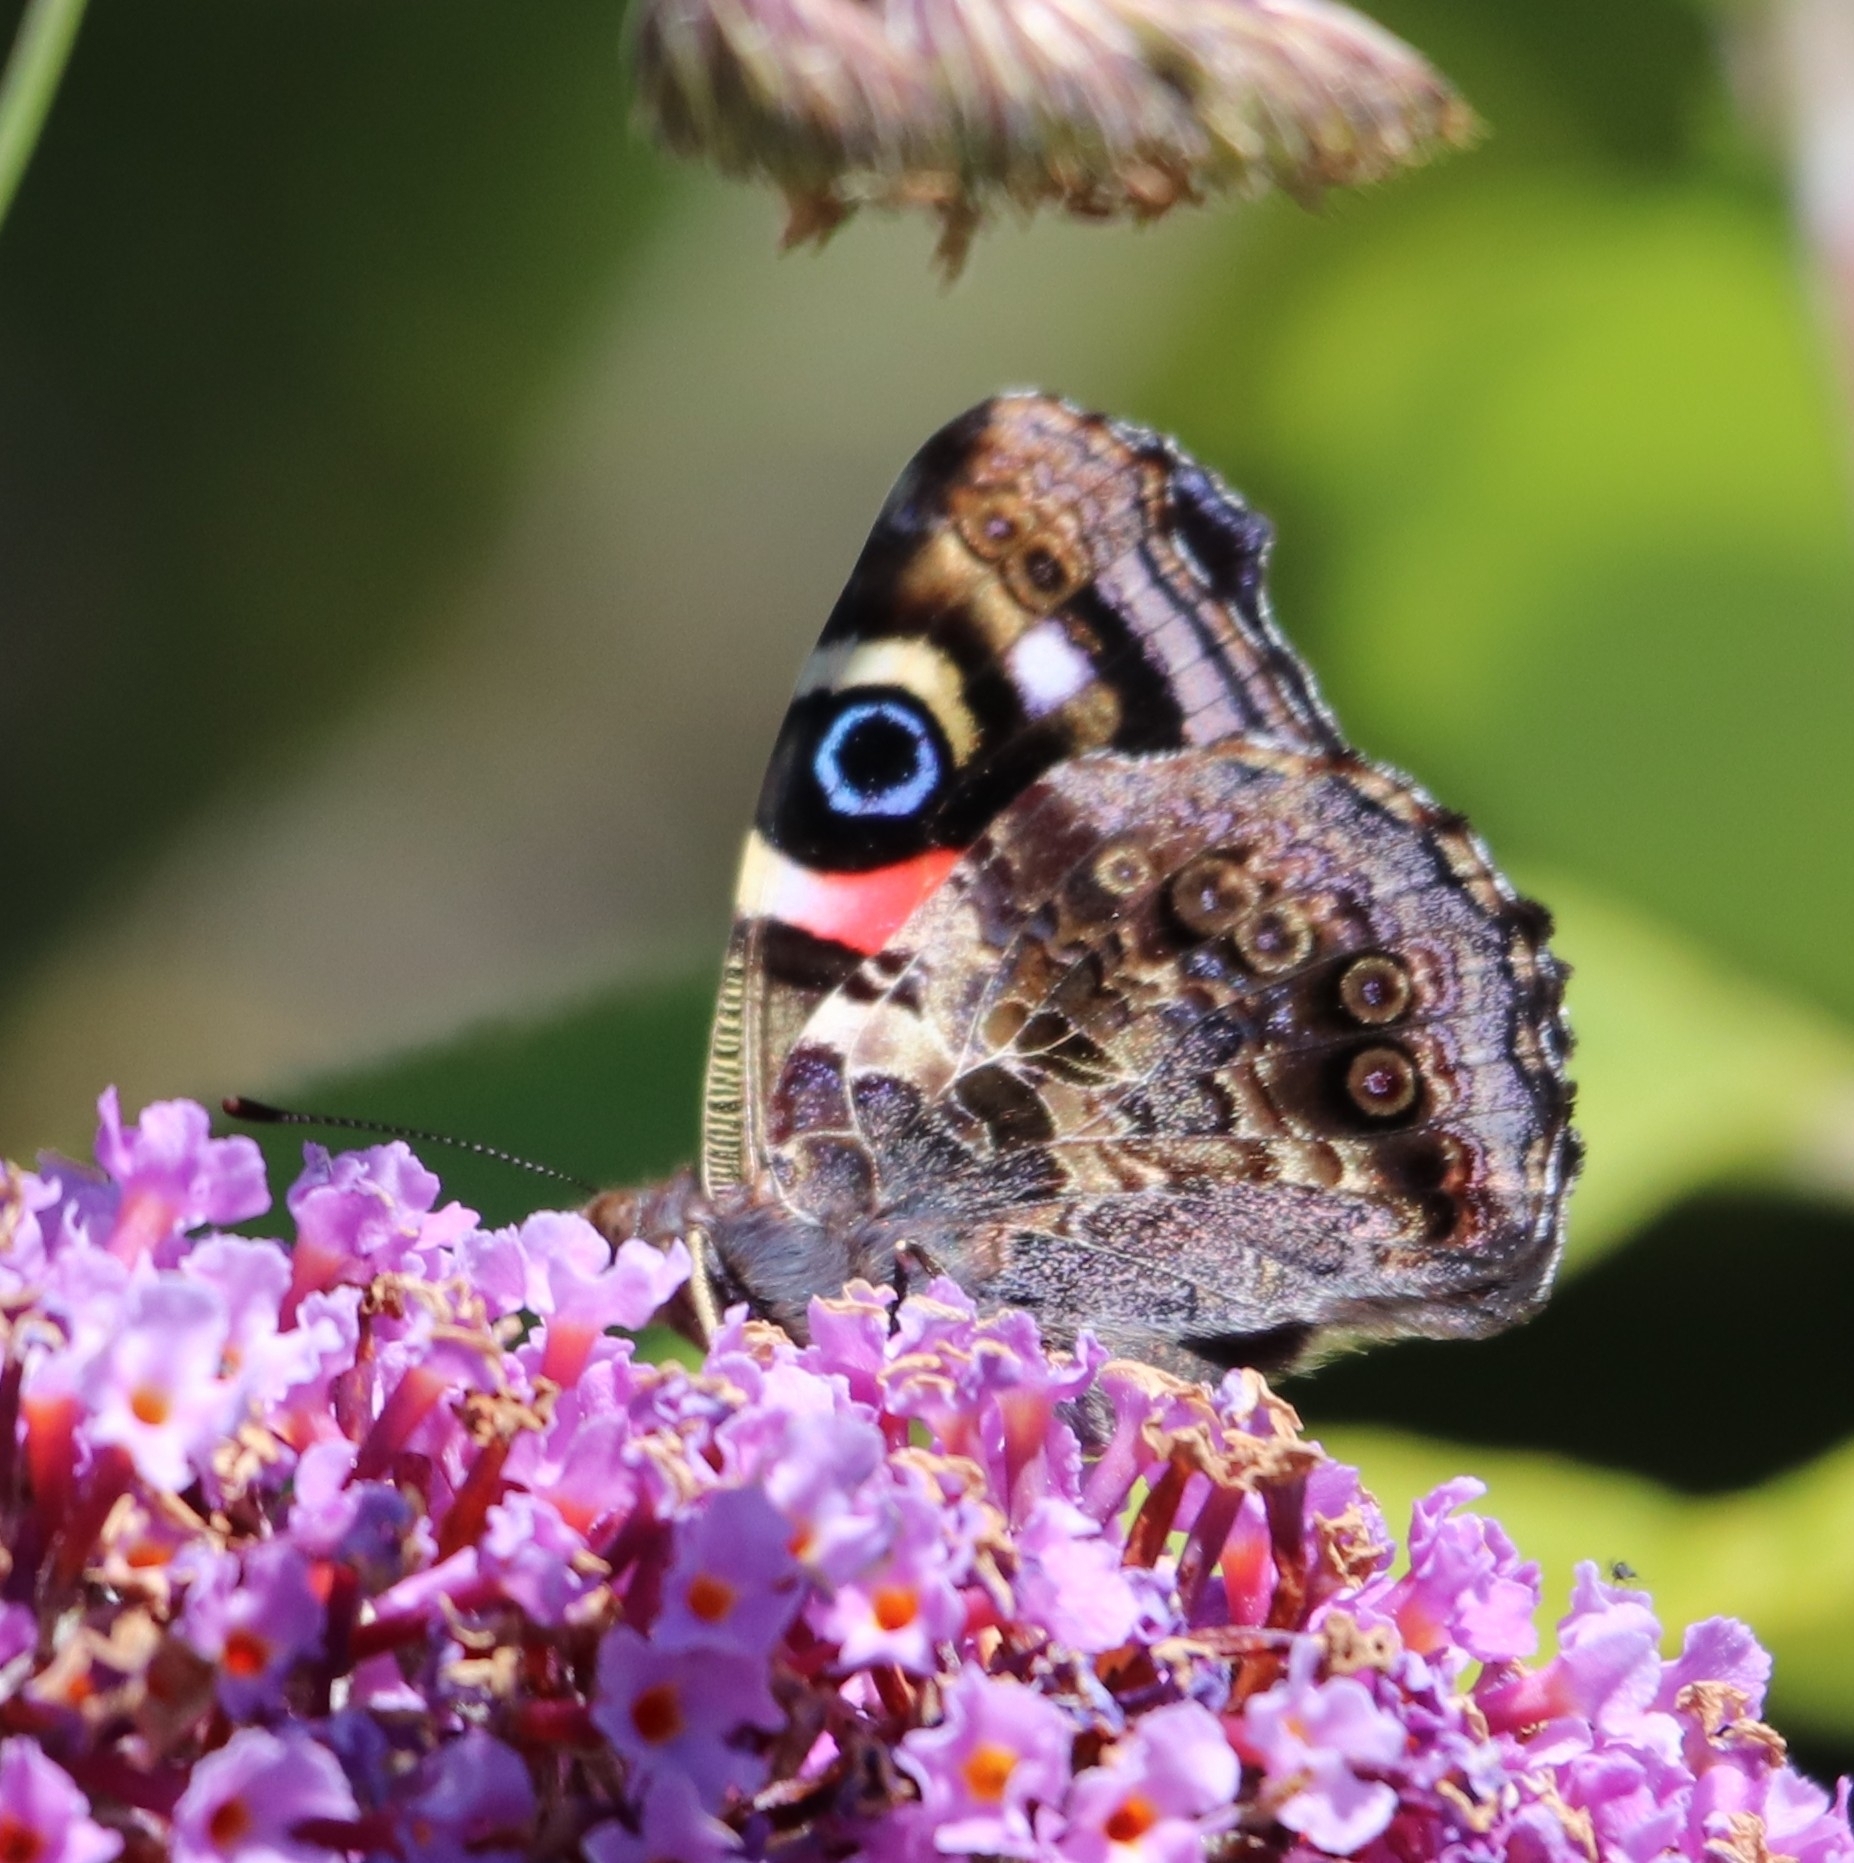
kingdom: Animalia
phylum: Arthropoda
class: Insecta
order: Lepidoptera
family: Nymphalidae
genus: Vanessa
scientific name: Vanessa gonerilla
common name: New zealand red admiral
